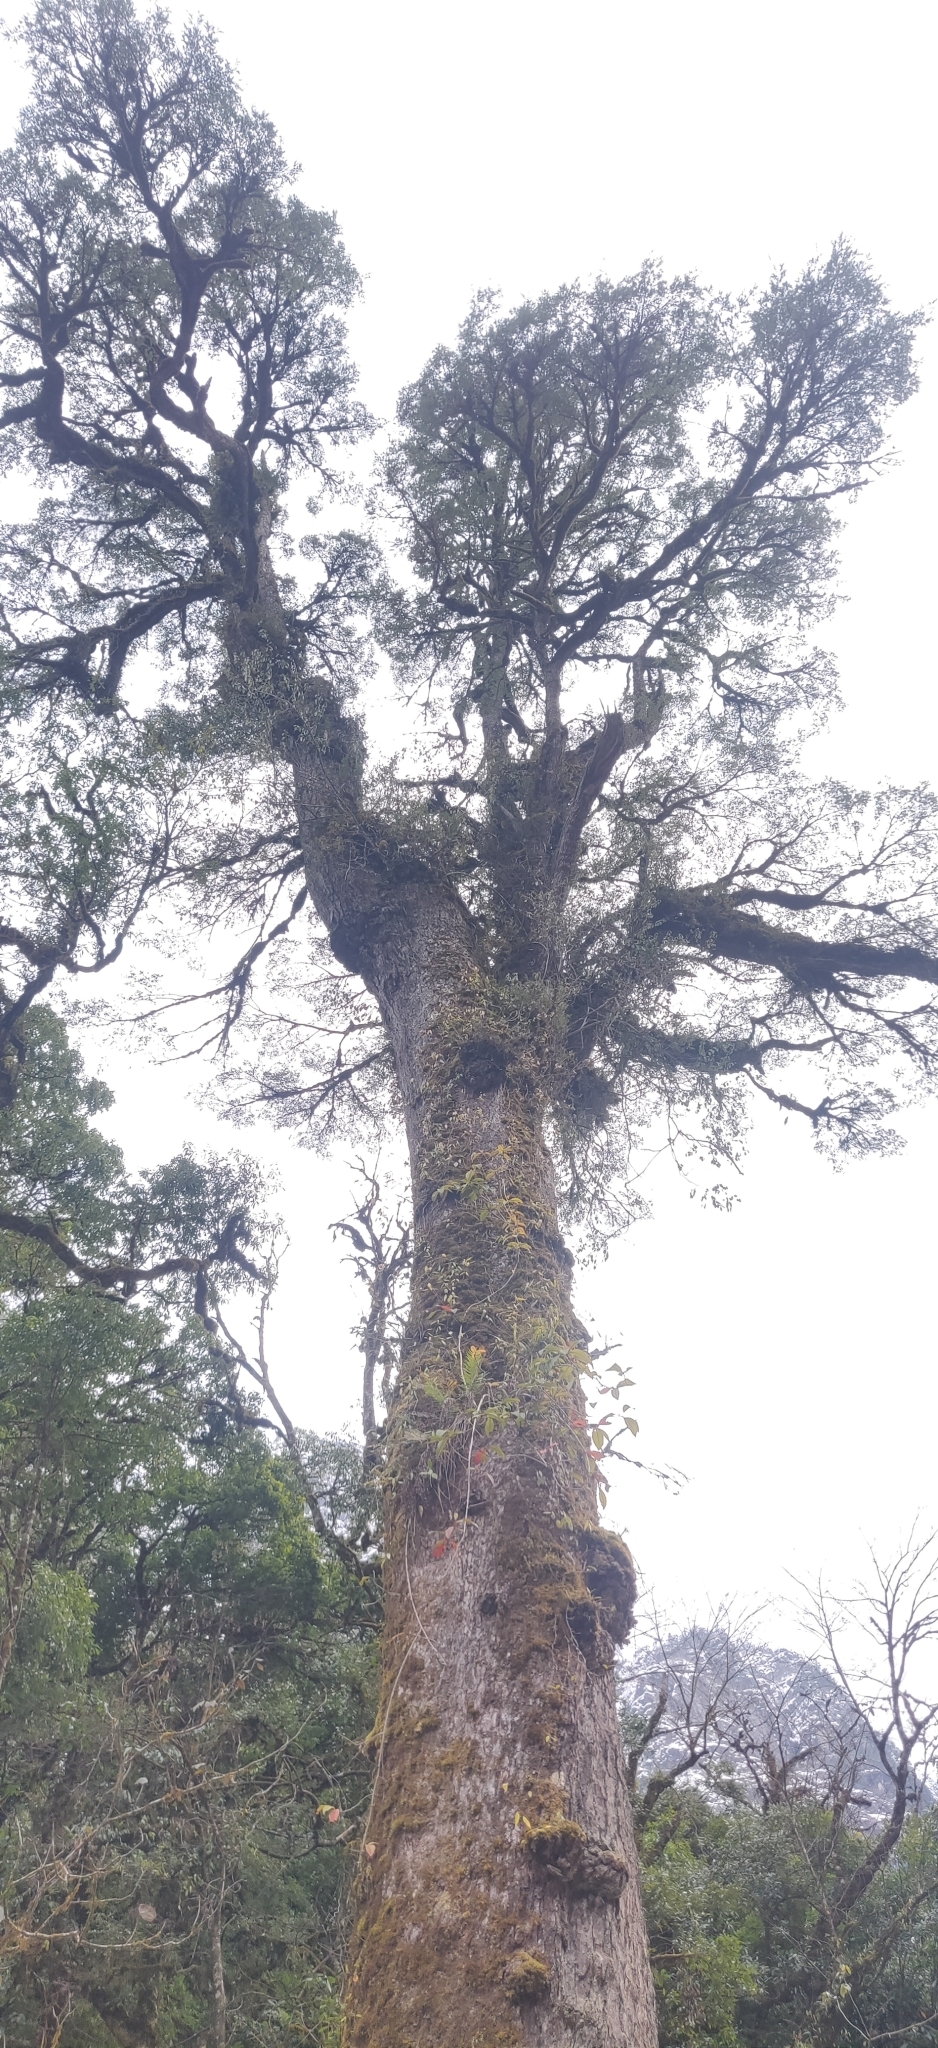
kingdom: Plantae
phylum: Tracheophyta
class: Pinopsida
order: Pinales
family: Pinaceae
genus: Tsuga
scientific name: Tsuga dumosa
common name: Himalayan hemlock
